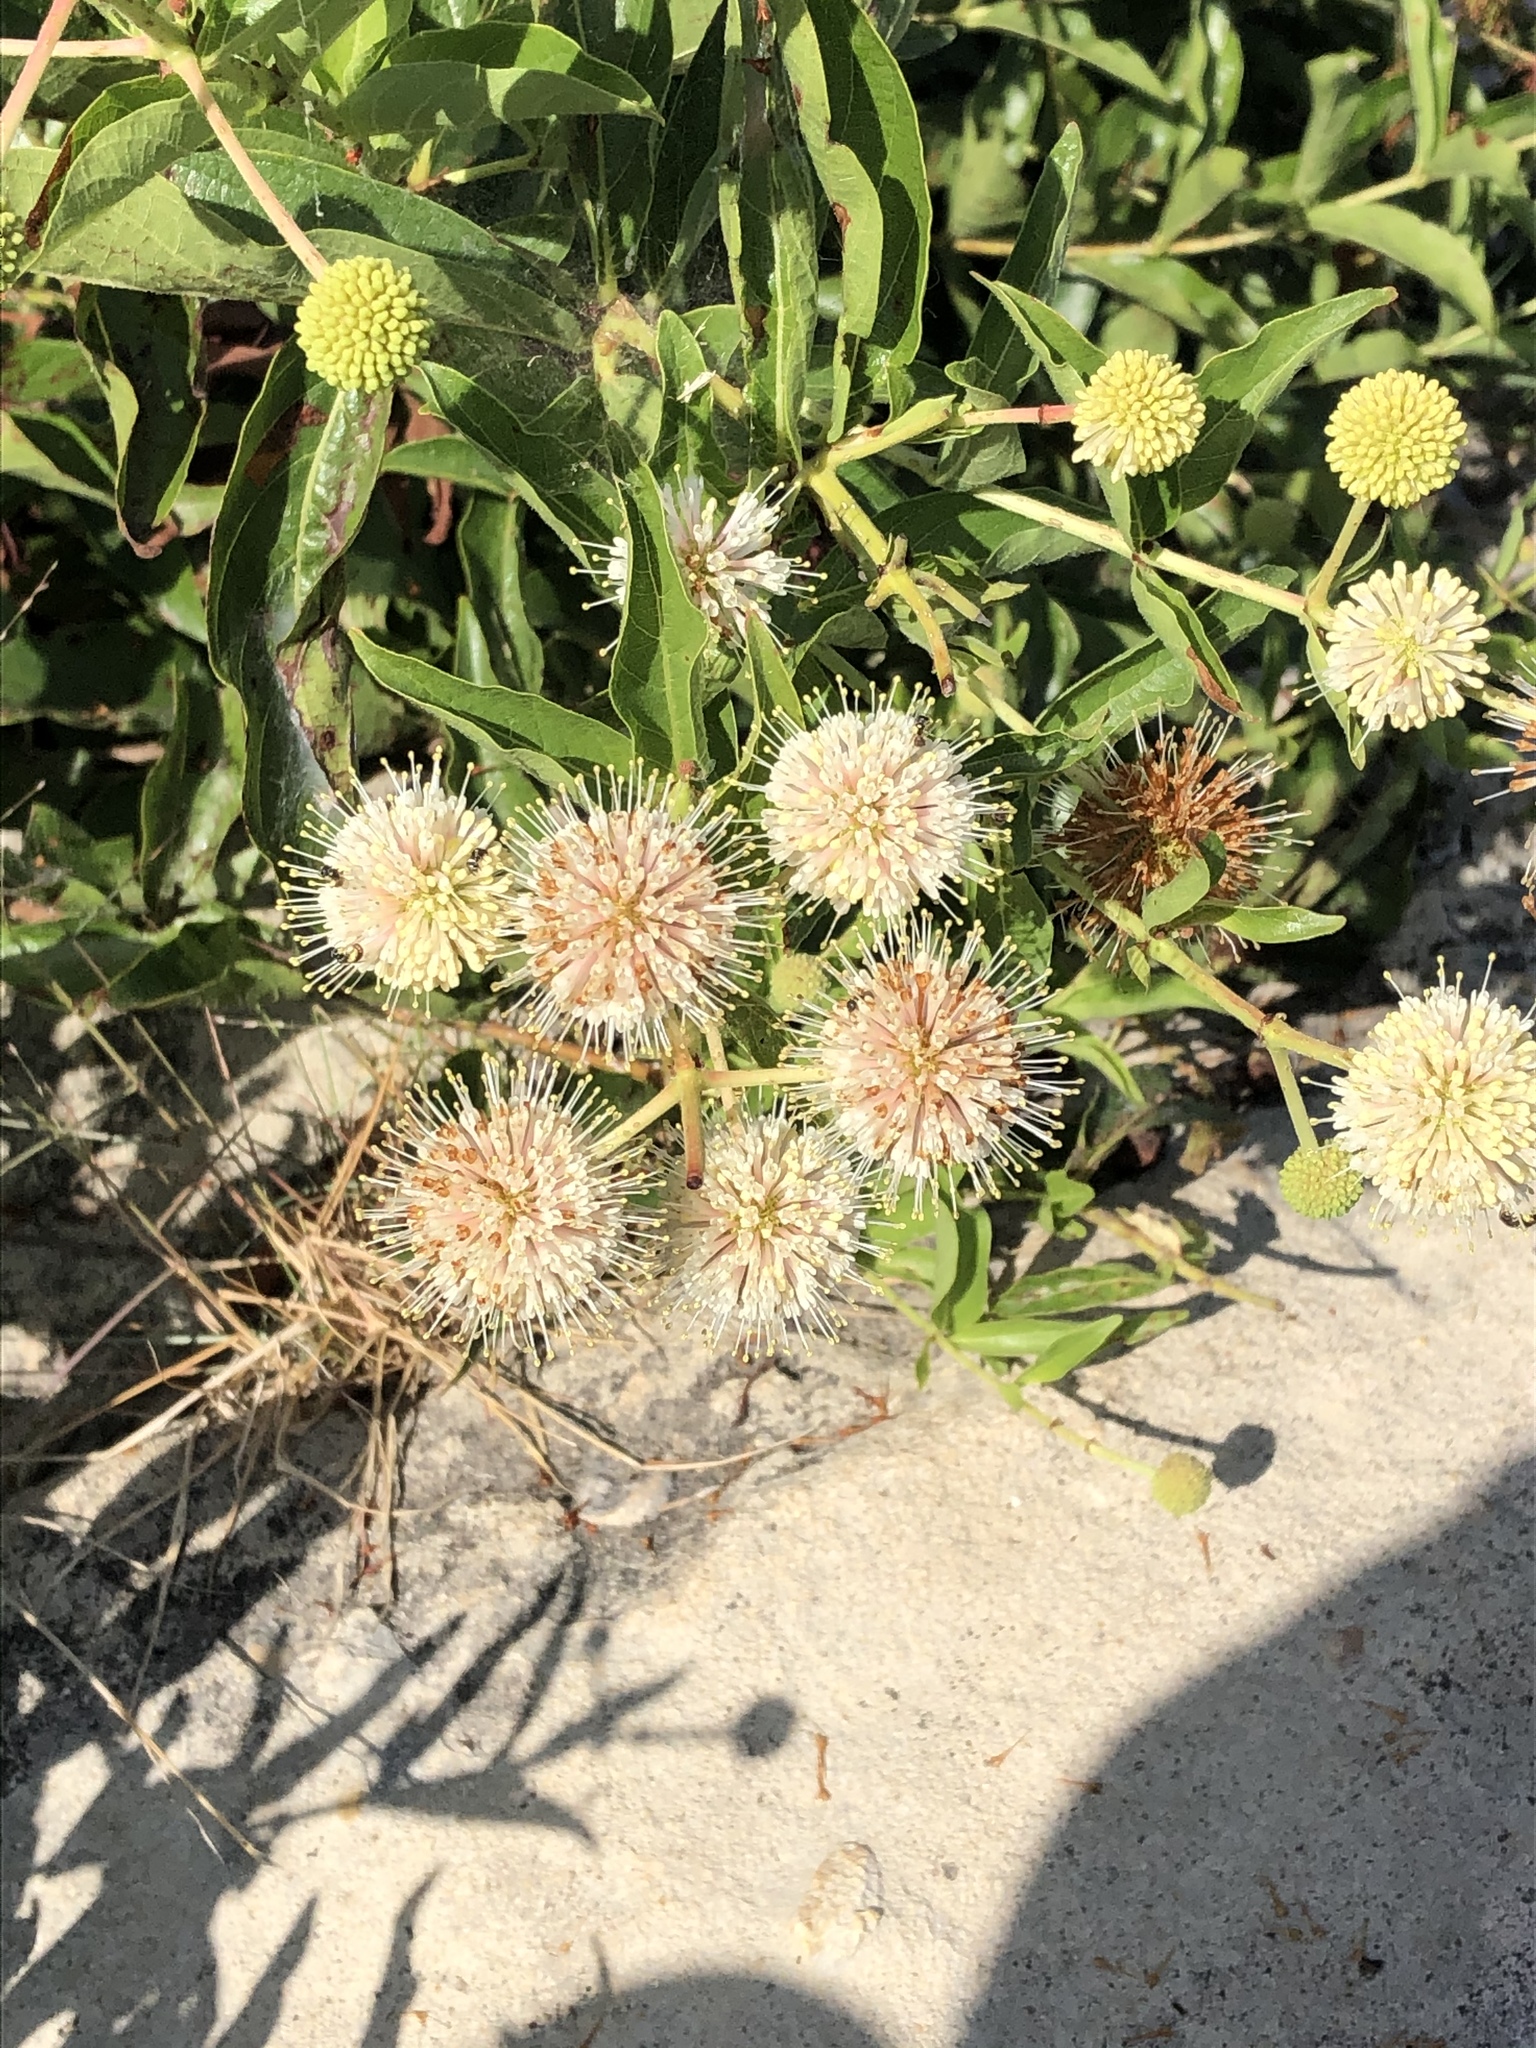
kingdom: Plantae
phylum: Tracheophyta
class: Magnoliopsida
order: Gentianales
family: Rubiaceae
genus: Cephalanthus
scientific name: Cephalanthus occidentalis
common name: Button-willow
